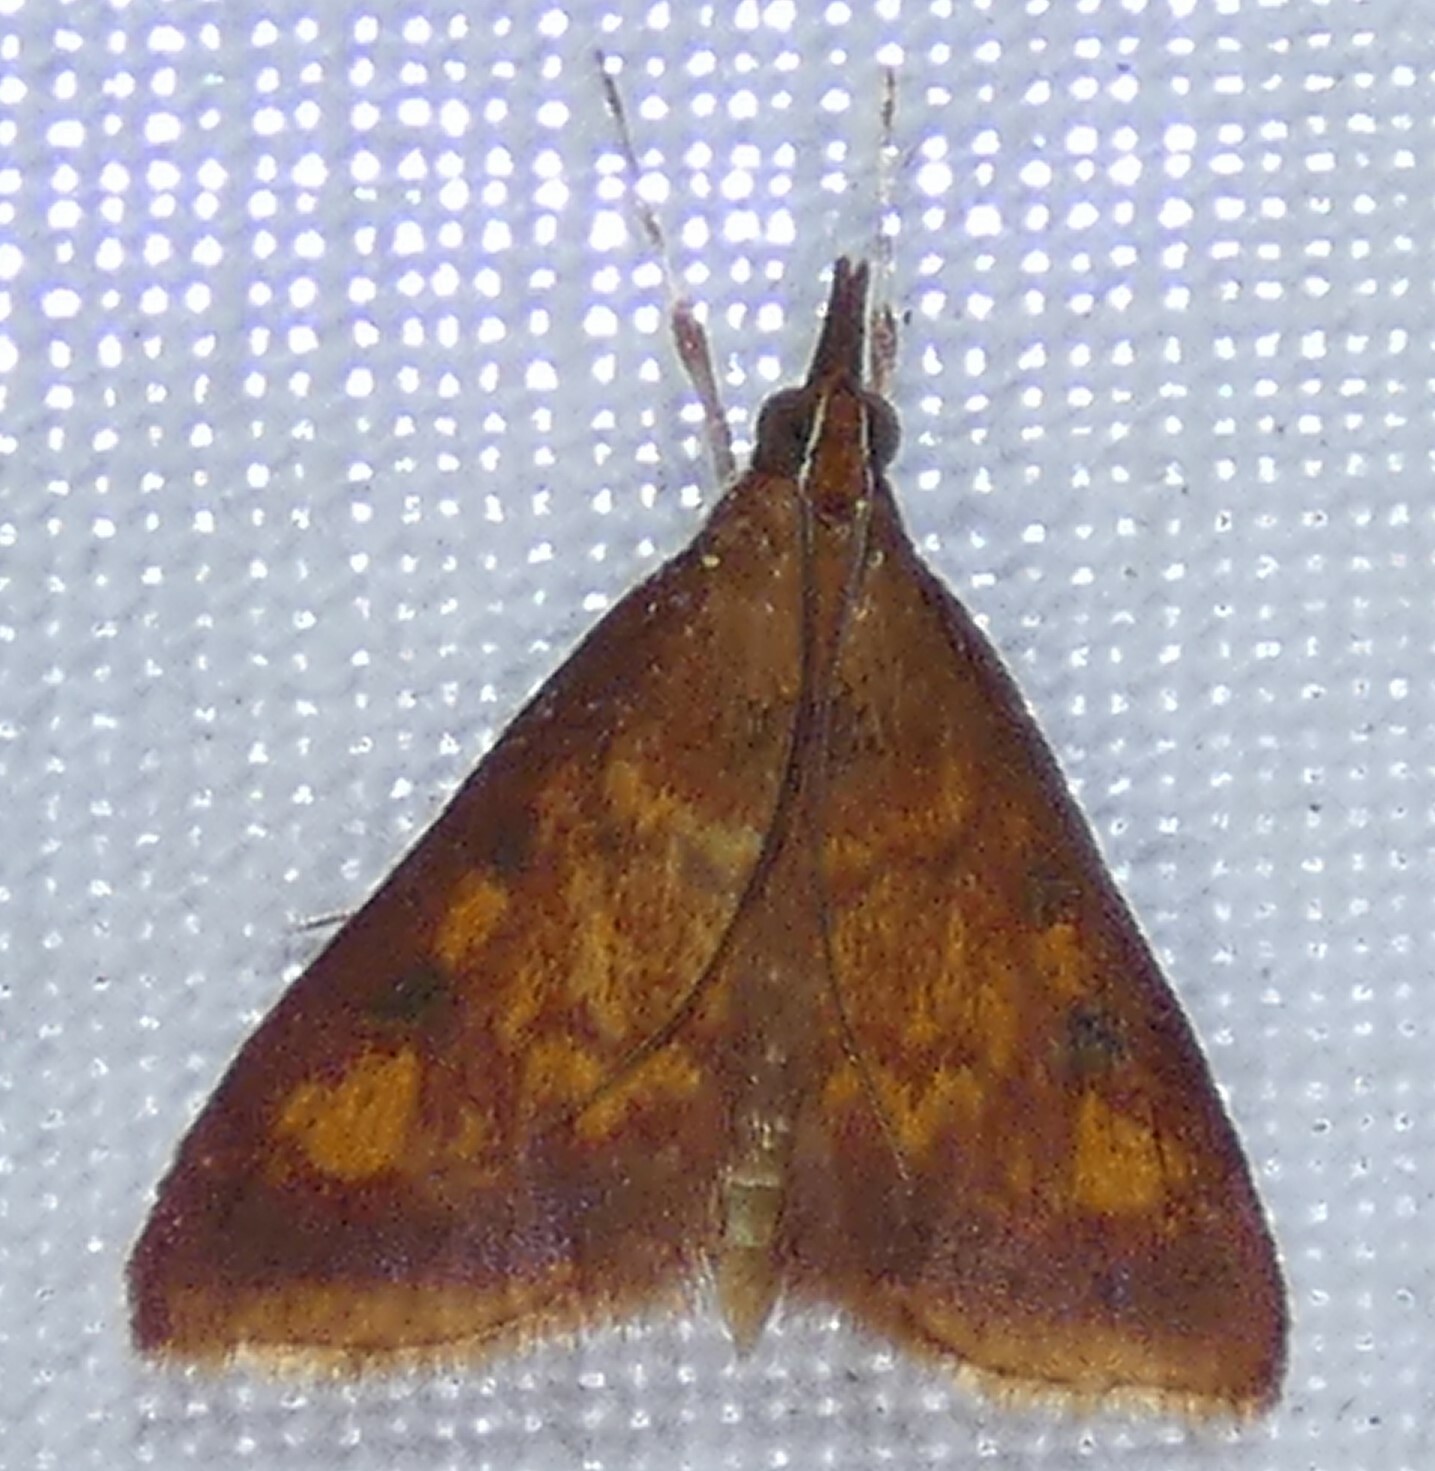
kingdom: Animalia
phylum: Arthropoda
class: Insecta
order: Lepidoptera
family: Crambidae
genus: Pyrausta
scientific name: Pyrausta acrionalis
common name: Mint-loving pyrausta moth
